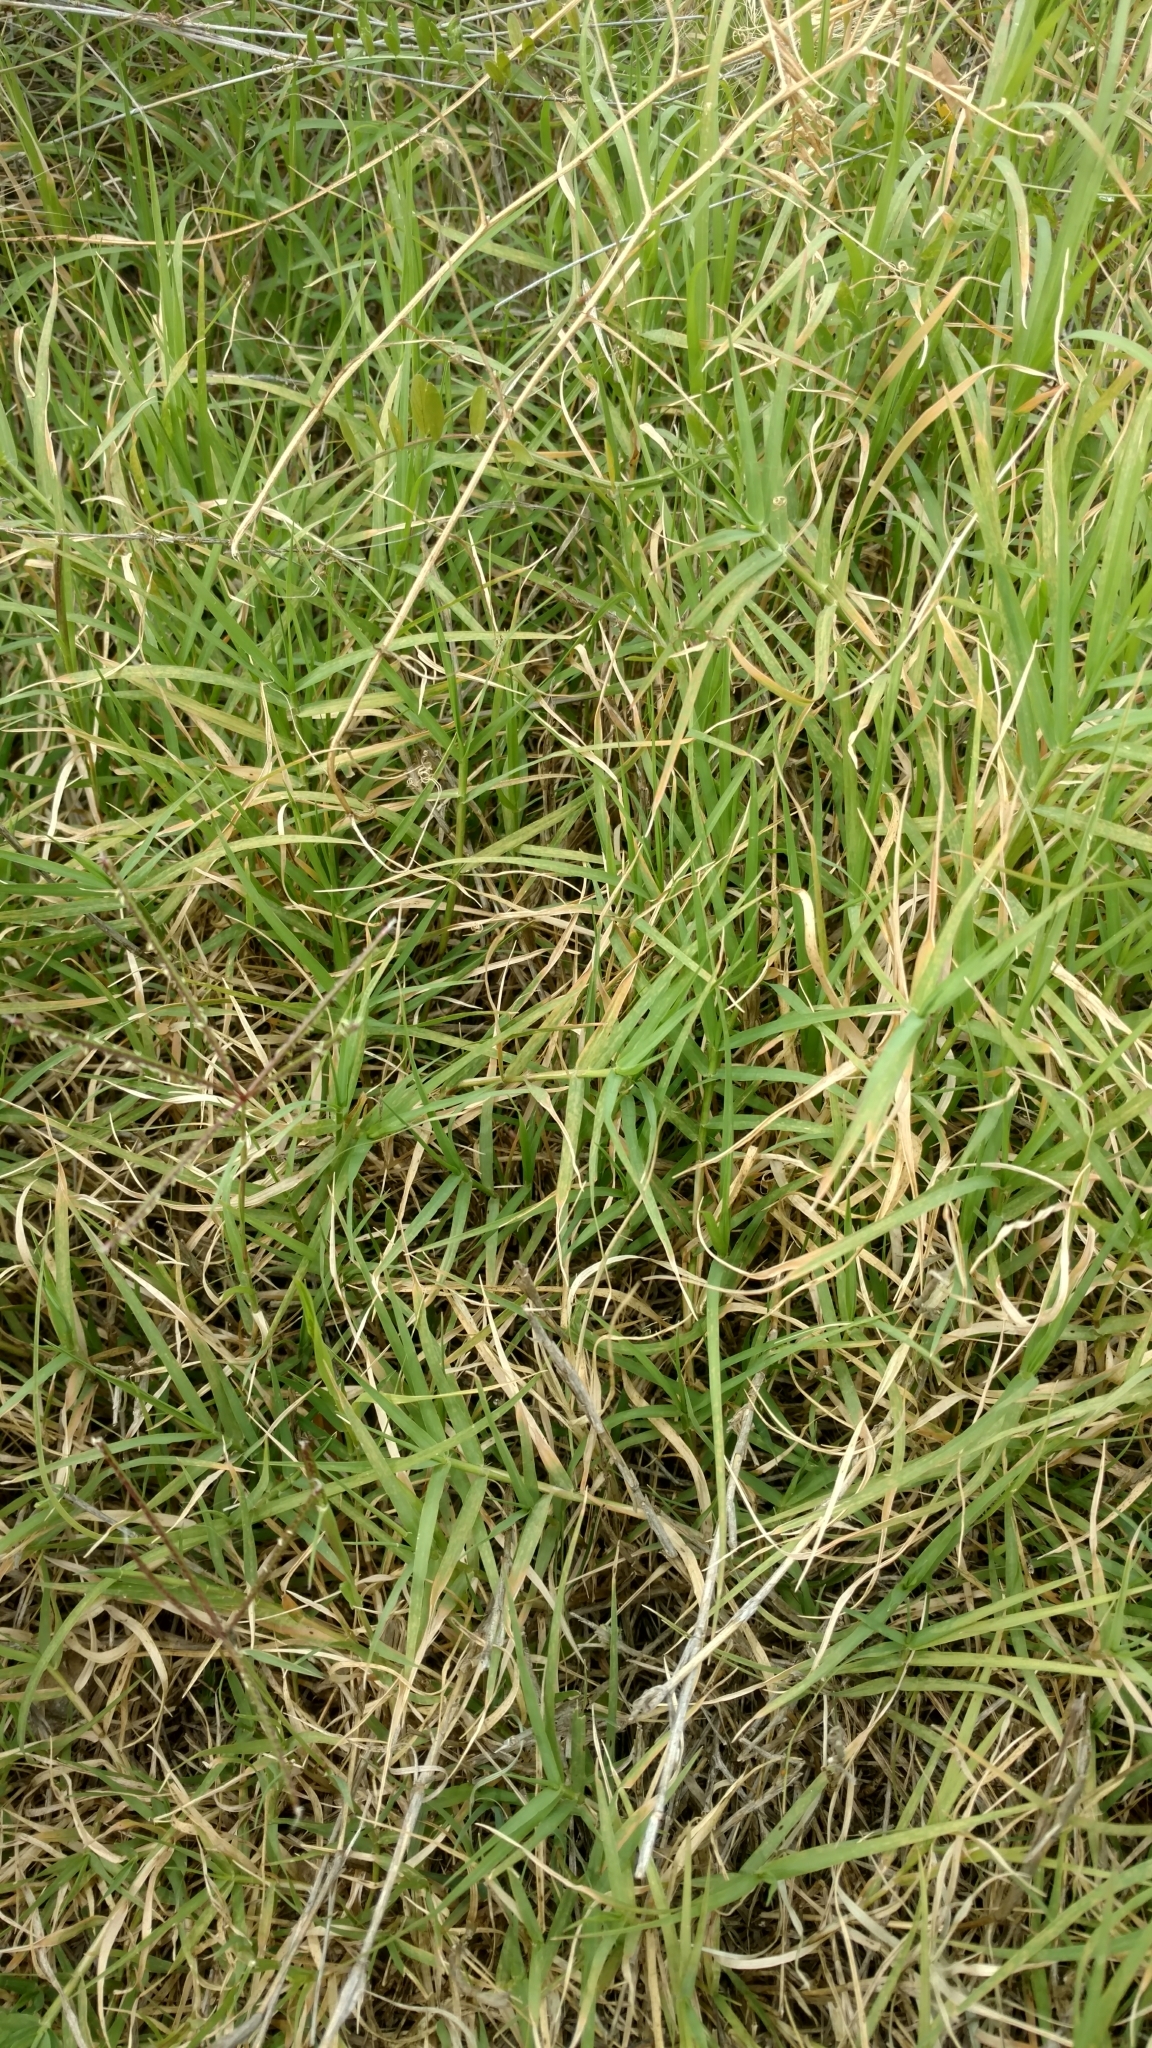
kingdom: Plantae
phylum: Tracheophyta
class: Liliopsida
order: Poales
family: Poaceae
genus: Cynodon
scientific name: Cynodon dactylon
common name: Bermuda grass
